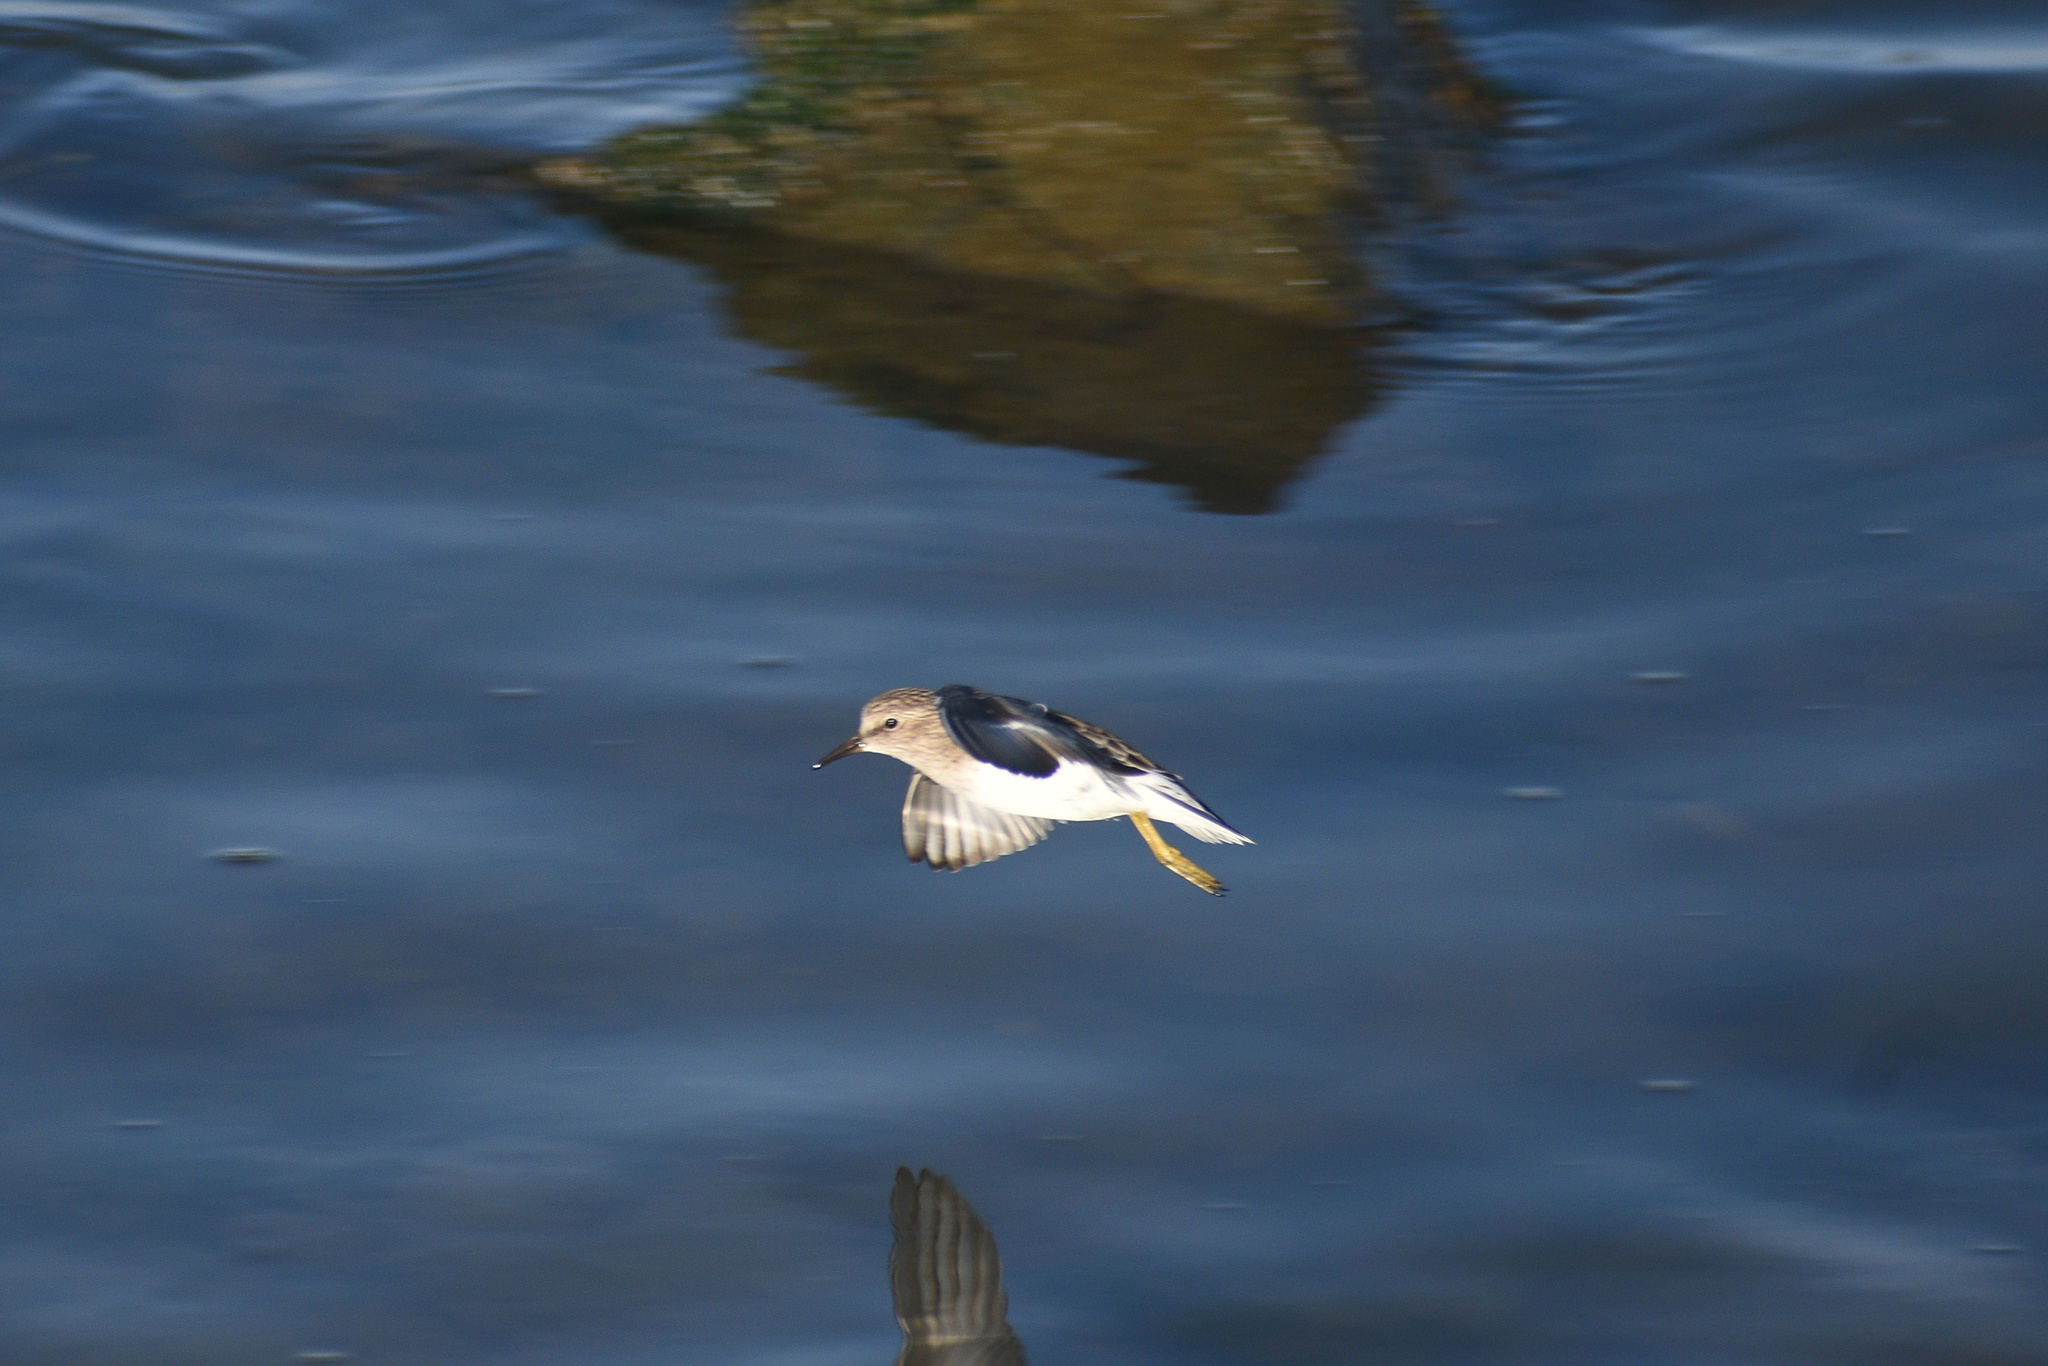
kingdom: Animalia
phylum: Chordata
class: Aves
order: Charadriiformes
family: Scolopacidae
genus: Calidris
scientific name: Calidris minutilla
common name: Least sandpiper
